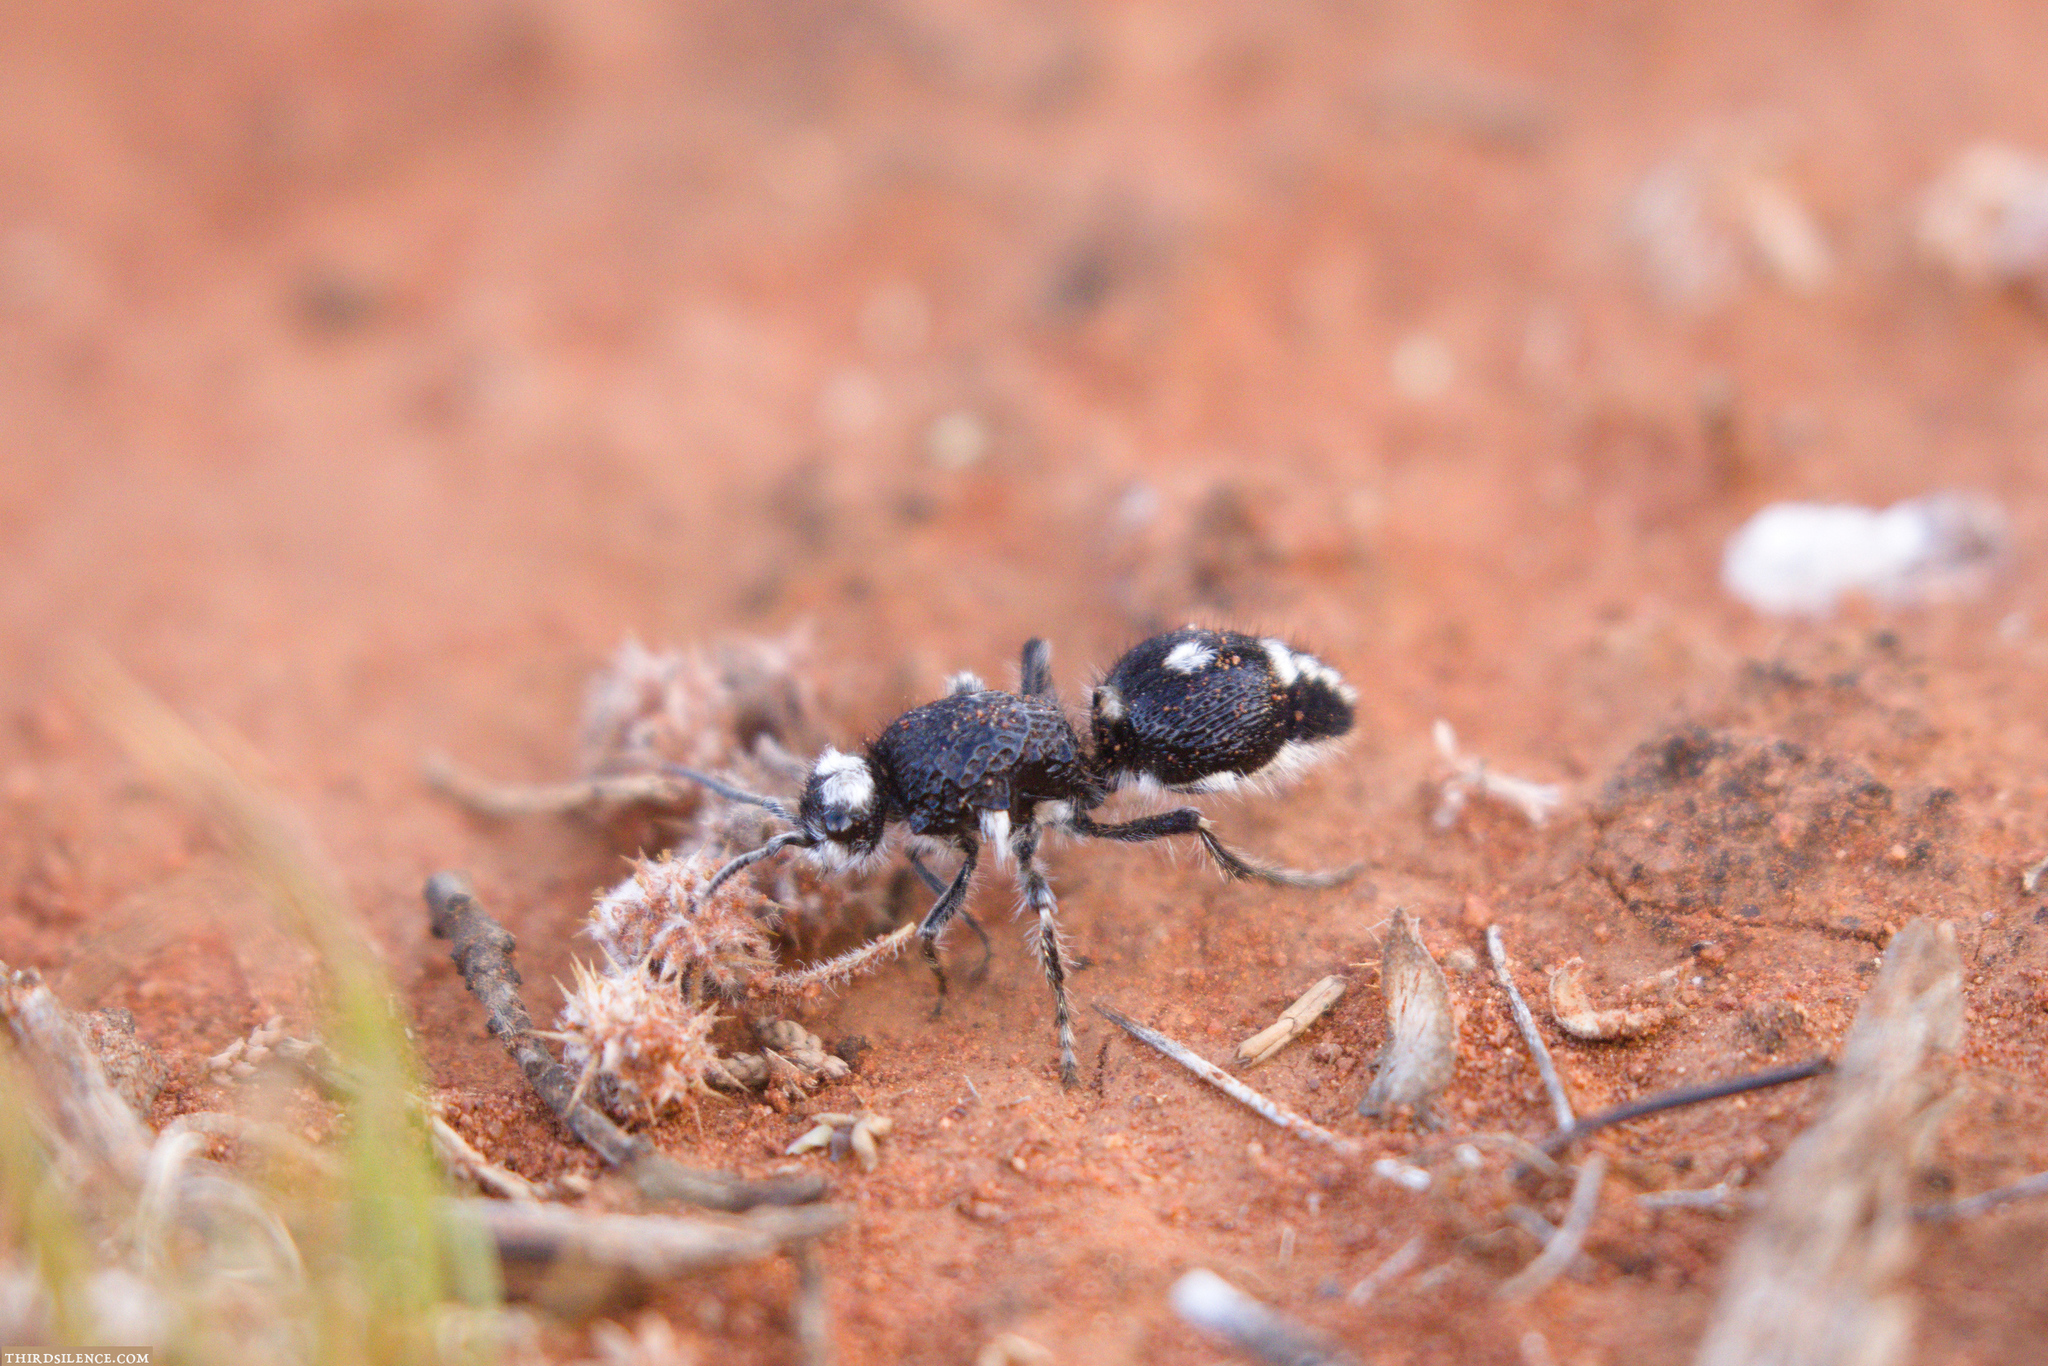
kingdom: Animalia
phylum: Arthropoda
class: Insecta
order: Hymenoptera
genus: Bothriomutilla
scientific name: Bothriomutilla
